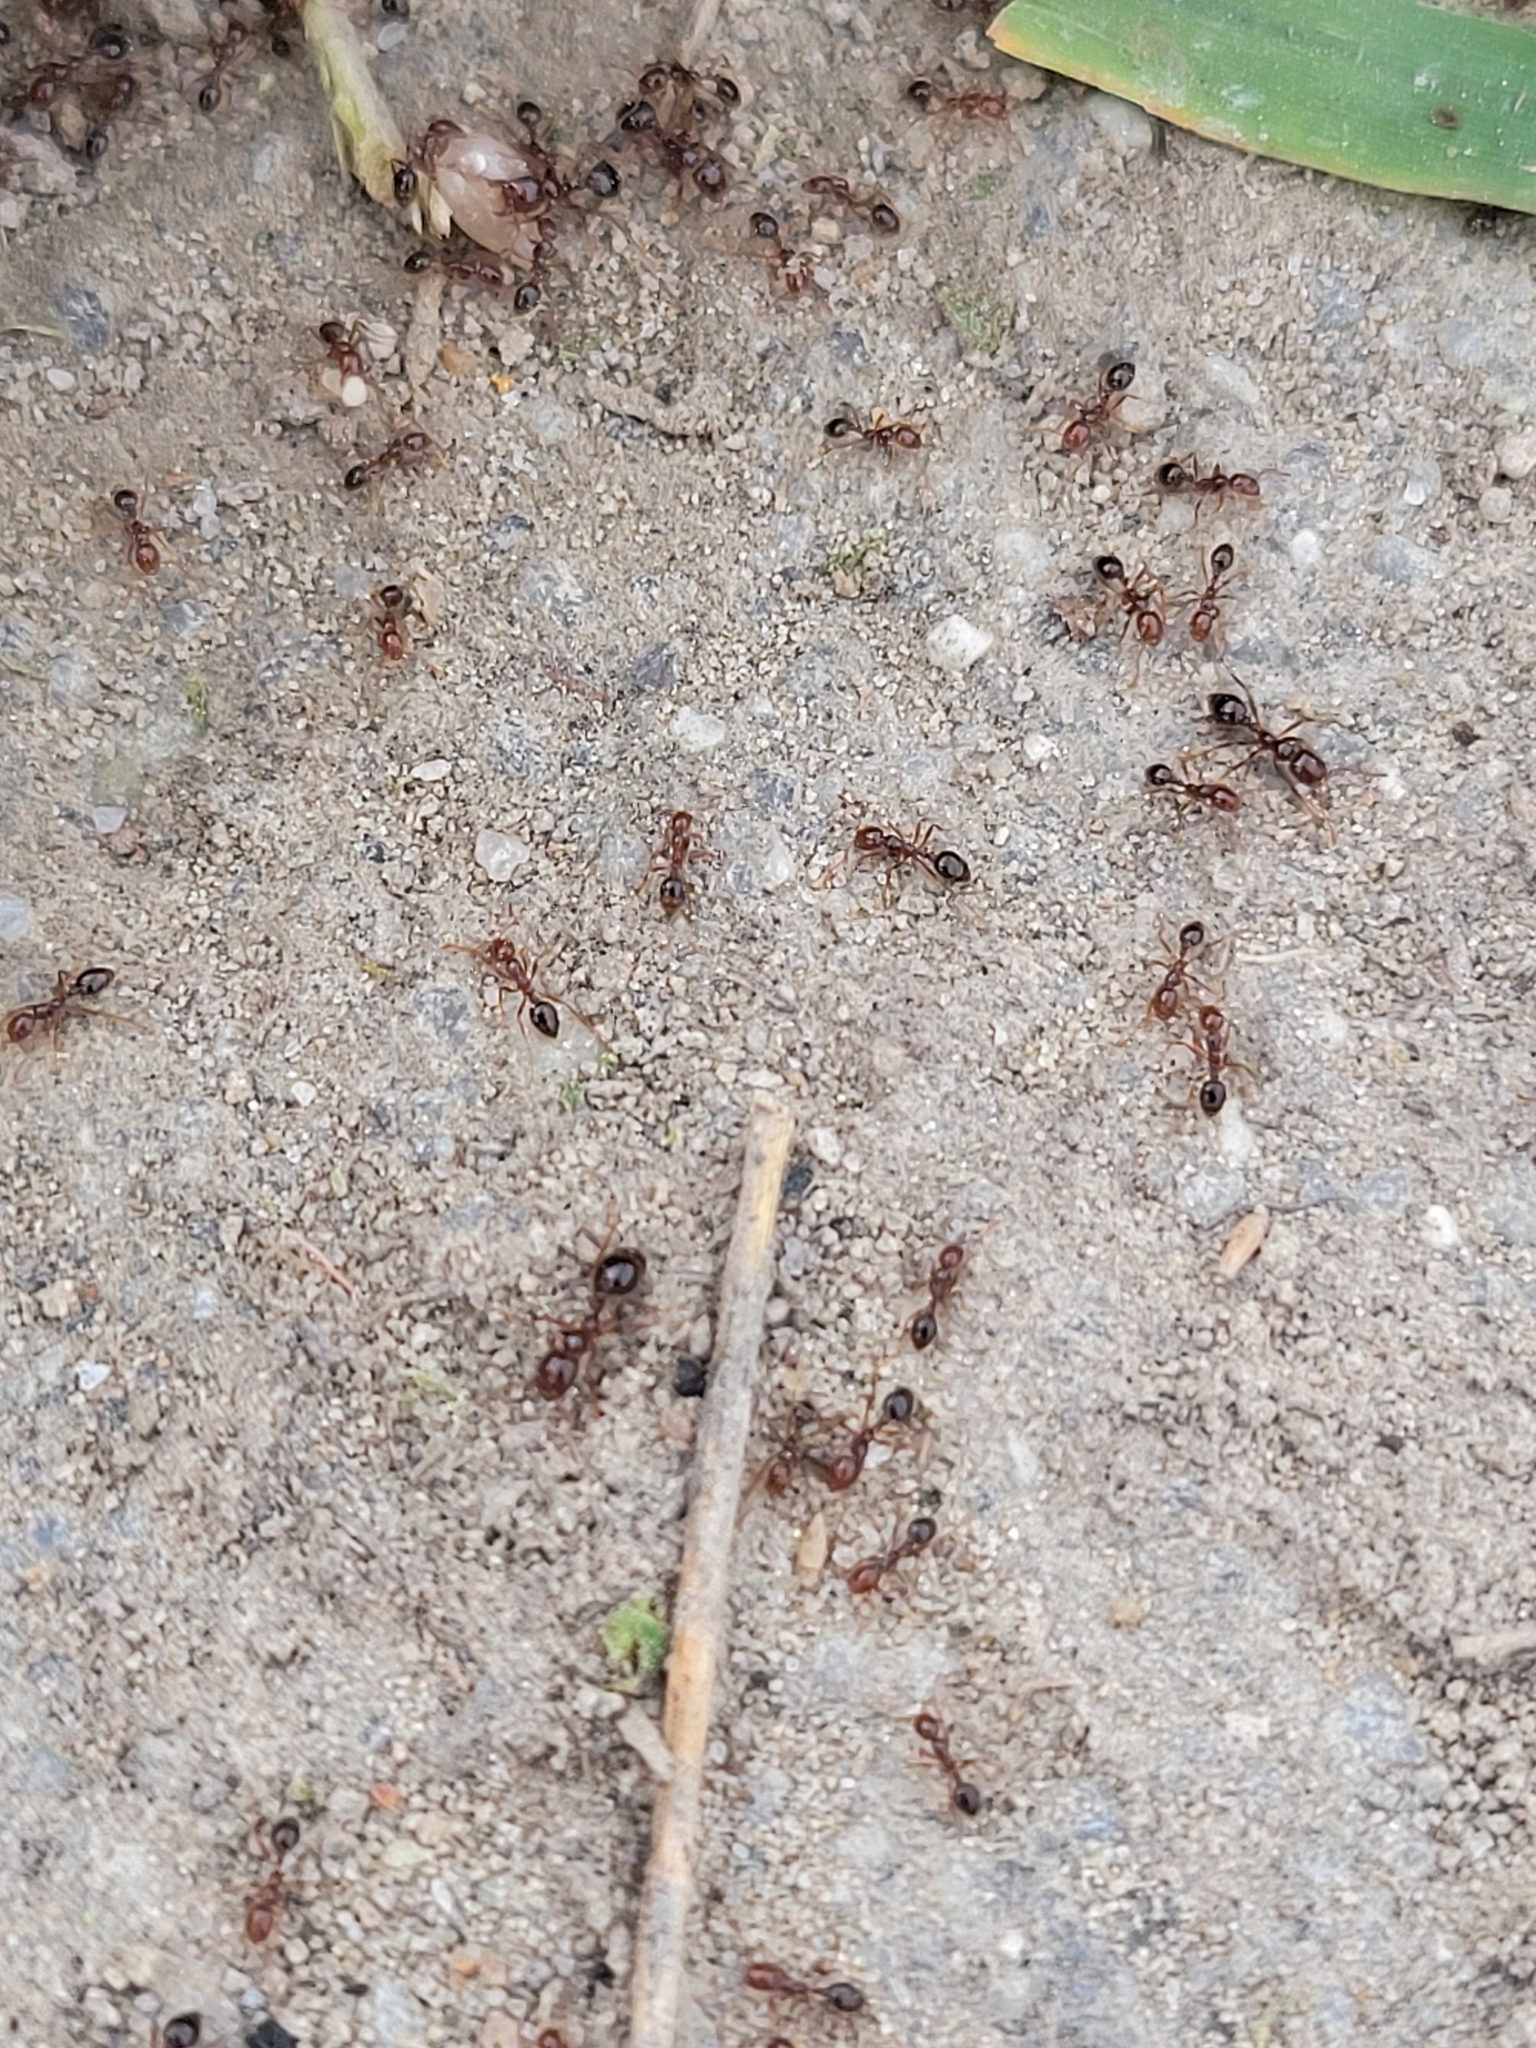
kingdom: Animalia
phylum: Arthropoda
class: Insecta
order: Hymenoptera
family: Formicidae
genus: Solenopsis
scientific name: Solenopsis invicta
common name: Red imported fire ant
